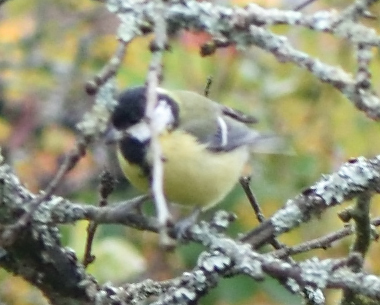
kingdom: Animalia
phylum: Chordata
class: Aves
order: Passeriformes
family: Paridae
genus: Parus
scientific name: Parus major
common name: Great tit
